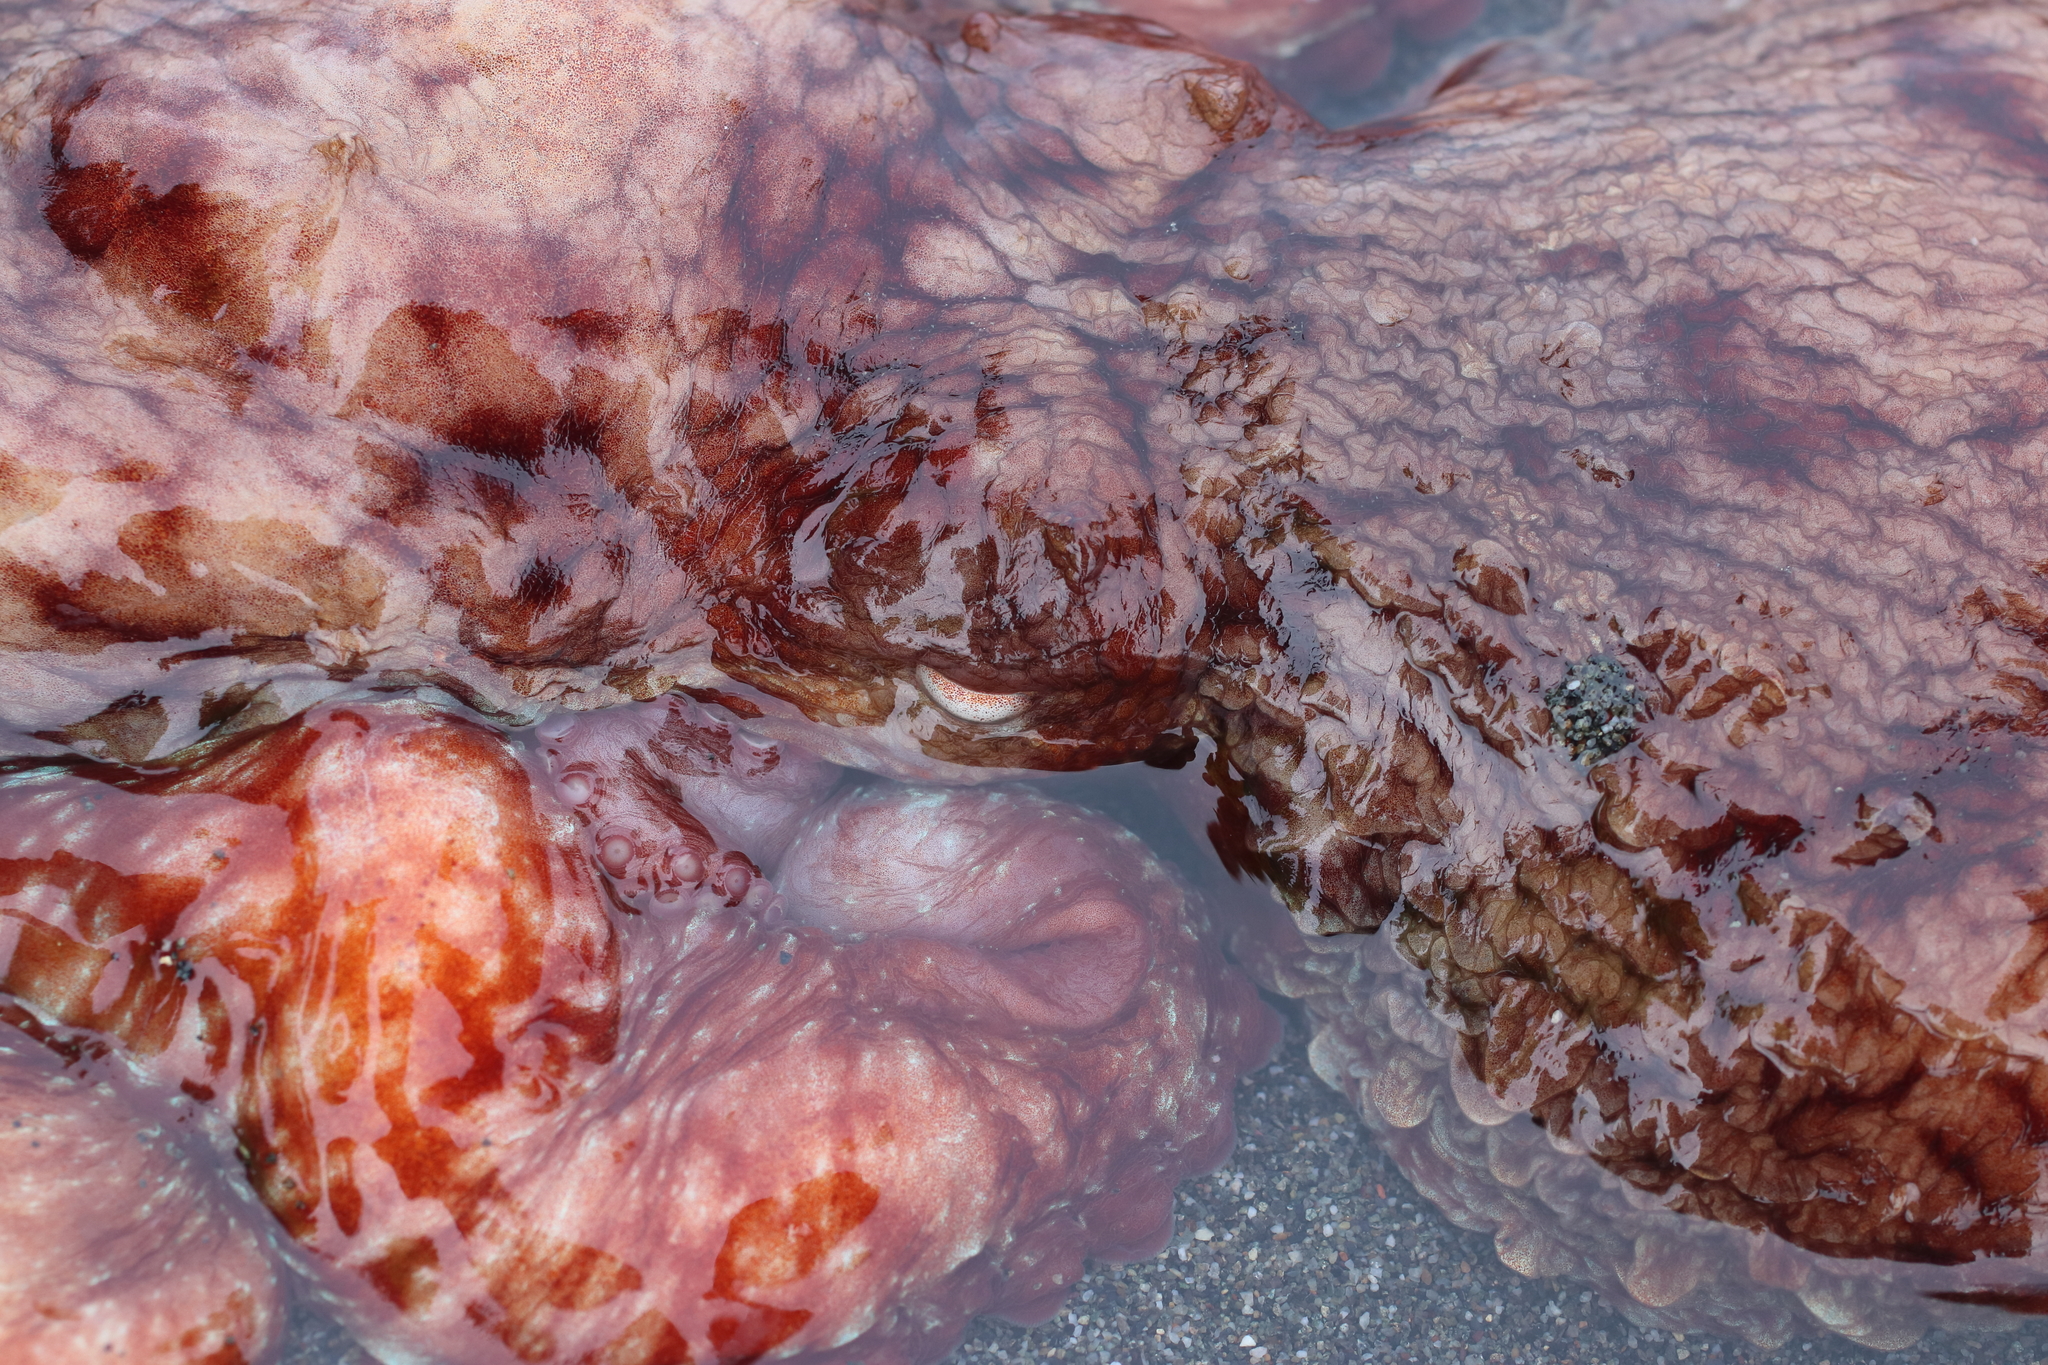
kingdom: Animalia
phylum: Mollusca
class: Cephalopoda
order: Octopoda
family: Enteroctopodidae
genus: Enteroctopus
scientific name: Enteroctopus dofleini
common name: Giant north pacific octopus
